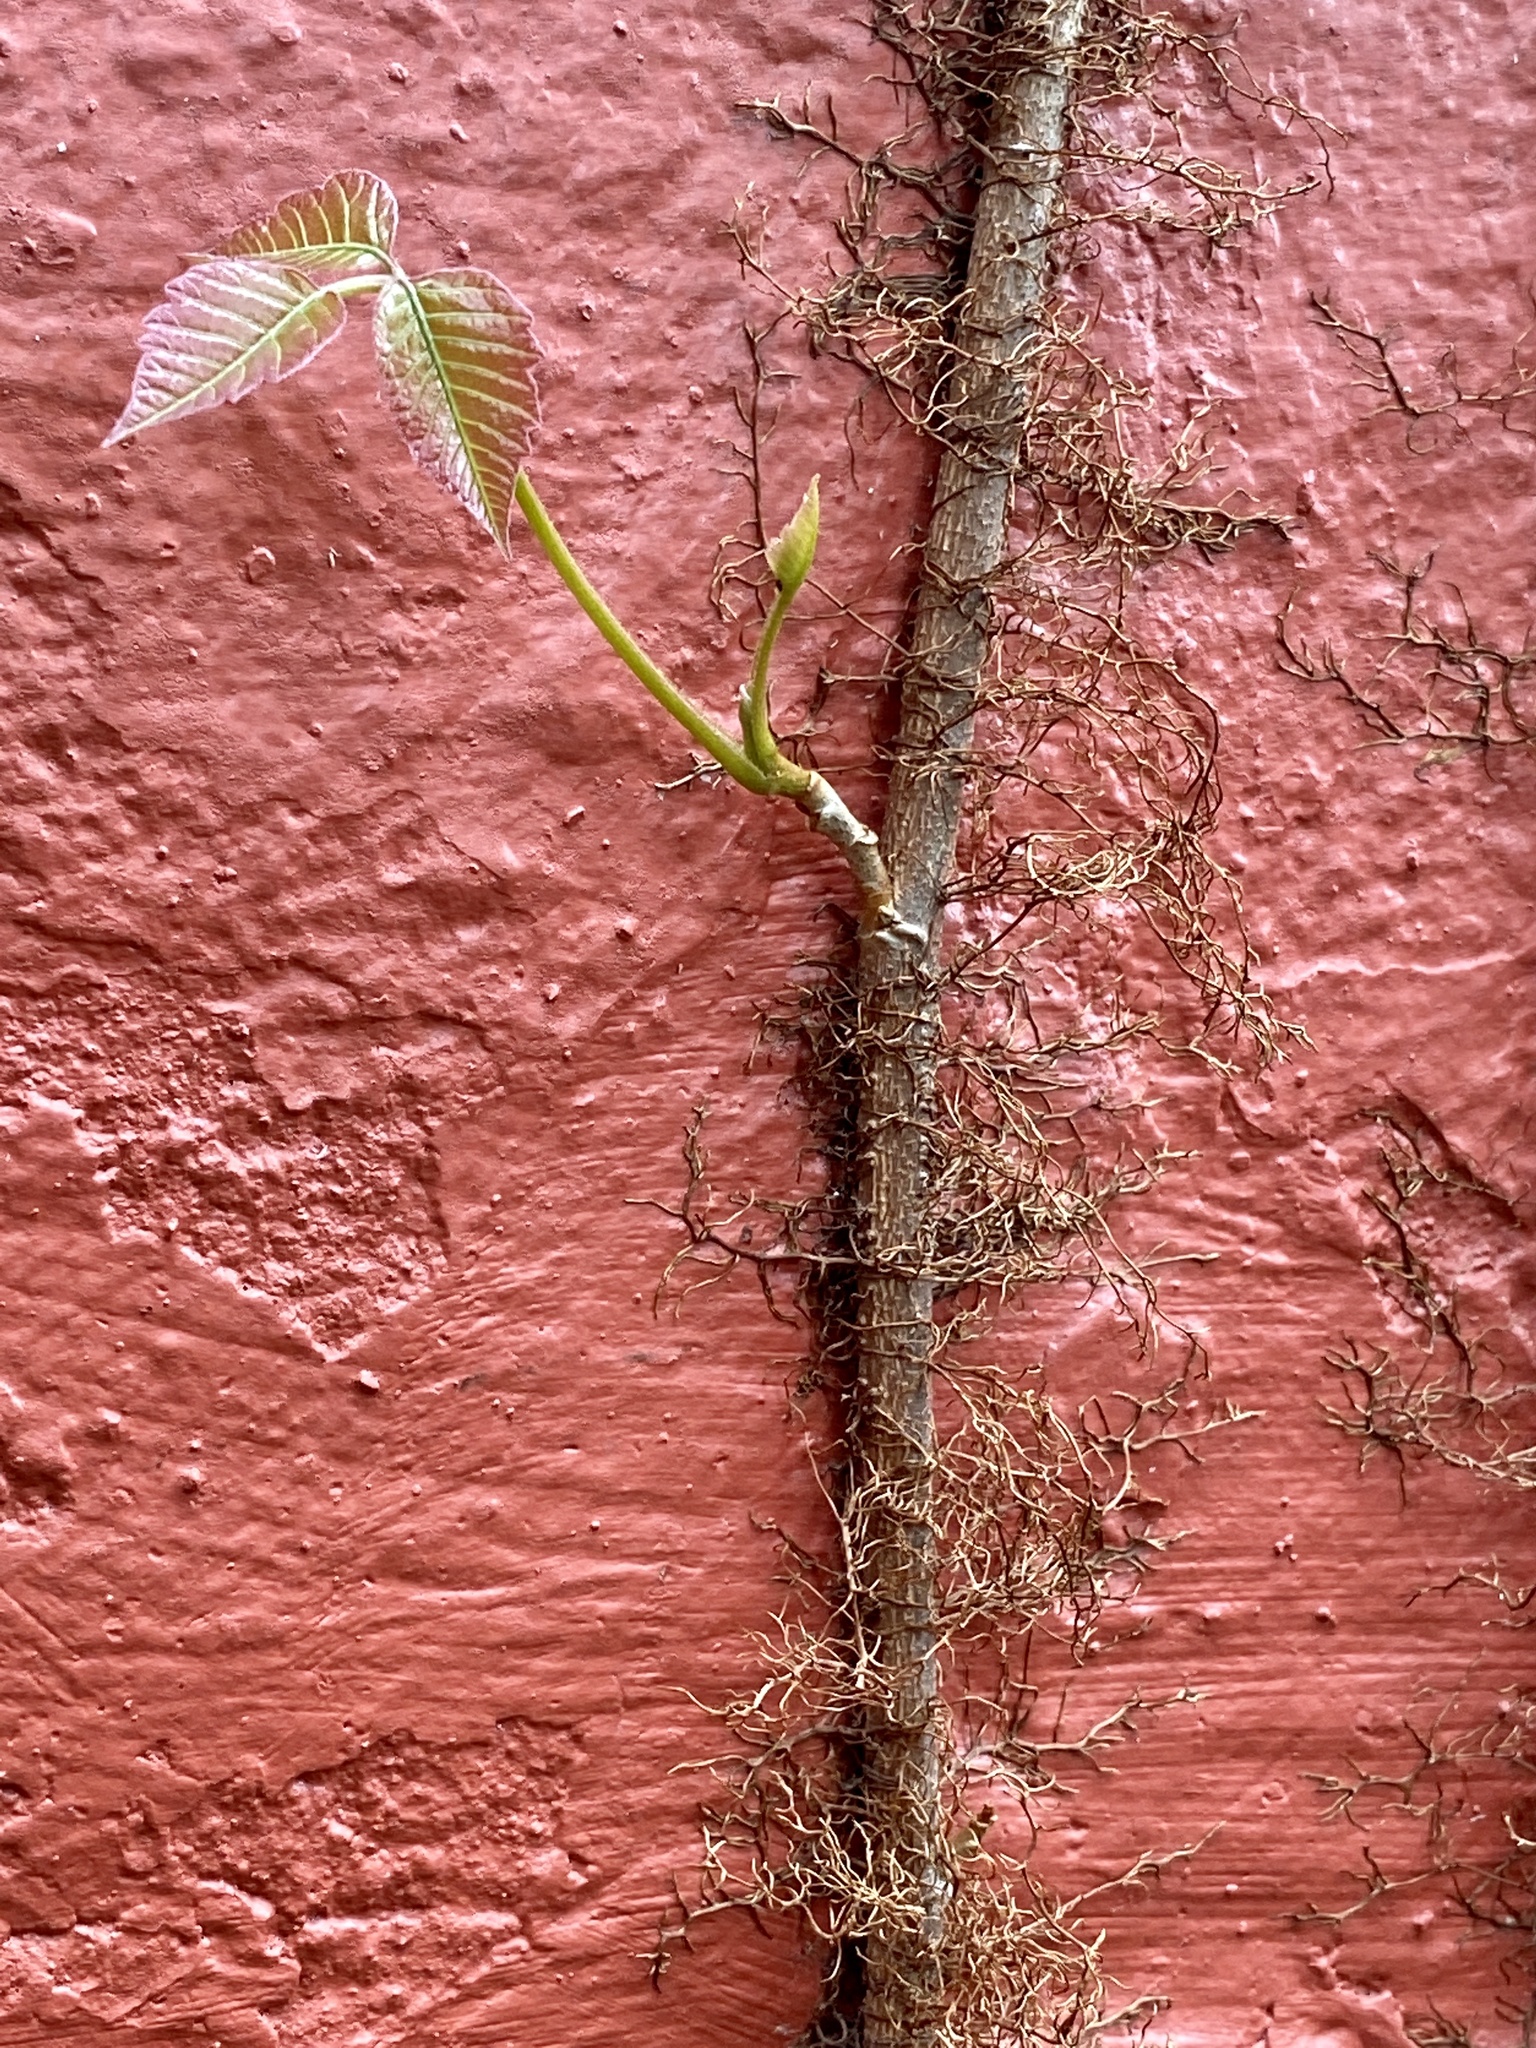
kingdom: Plantae
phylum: Tracheophyta
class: Magnoliopsida
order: Sapindales
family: Anacardiaceae
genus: Toxicodendron
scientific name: Toxicodendron radicans
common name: Poison ivy
